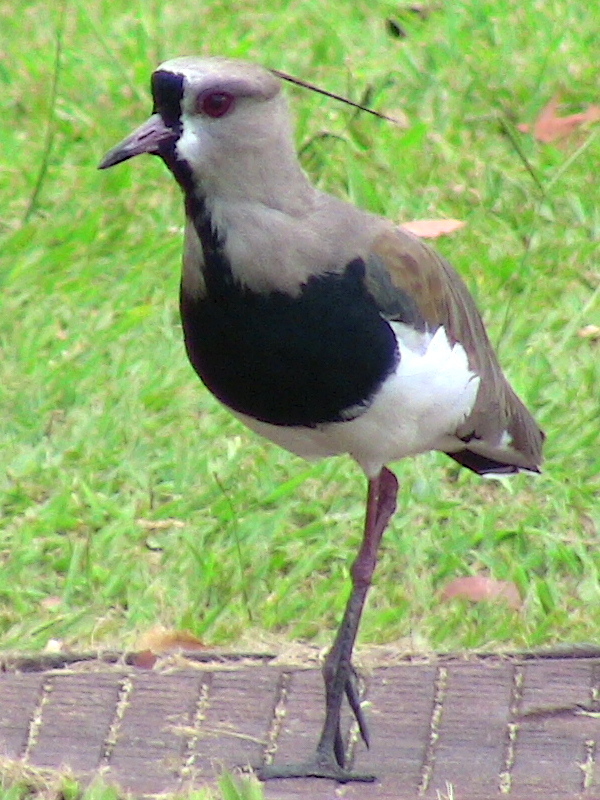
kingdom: Animalia
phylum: Chordata
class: Aves
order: Charadriiformes
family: Charadriidae
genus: Vanellus
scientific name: Vanellus chilensis
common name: Southern lapwing
